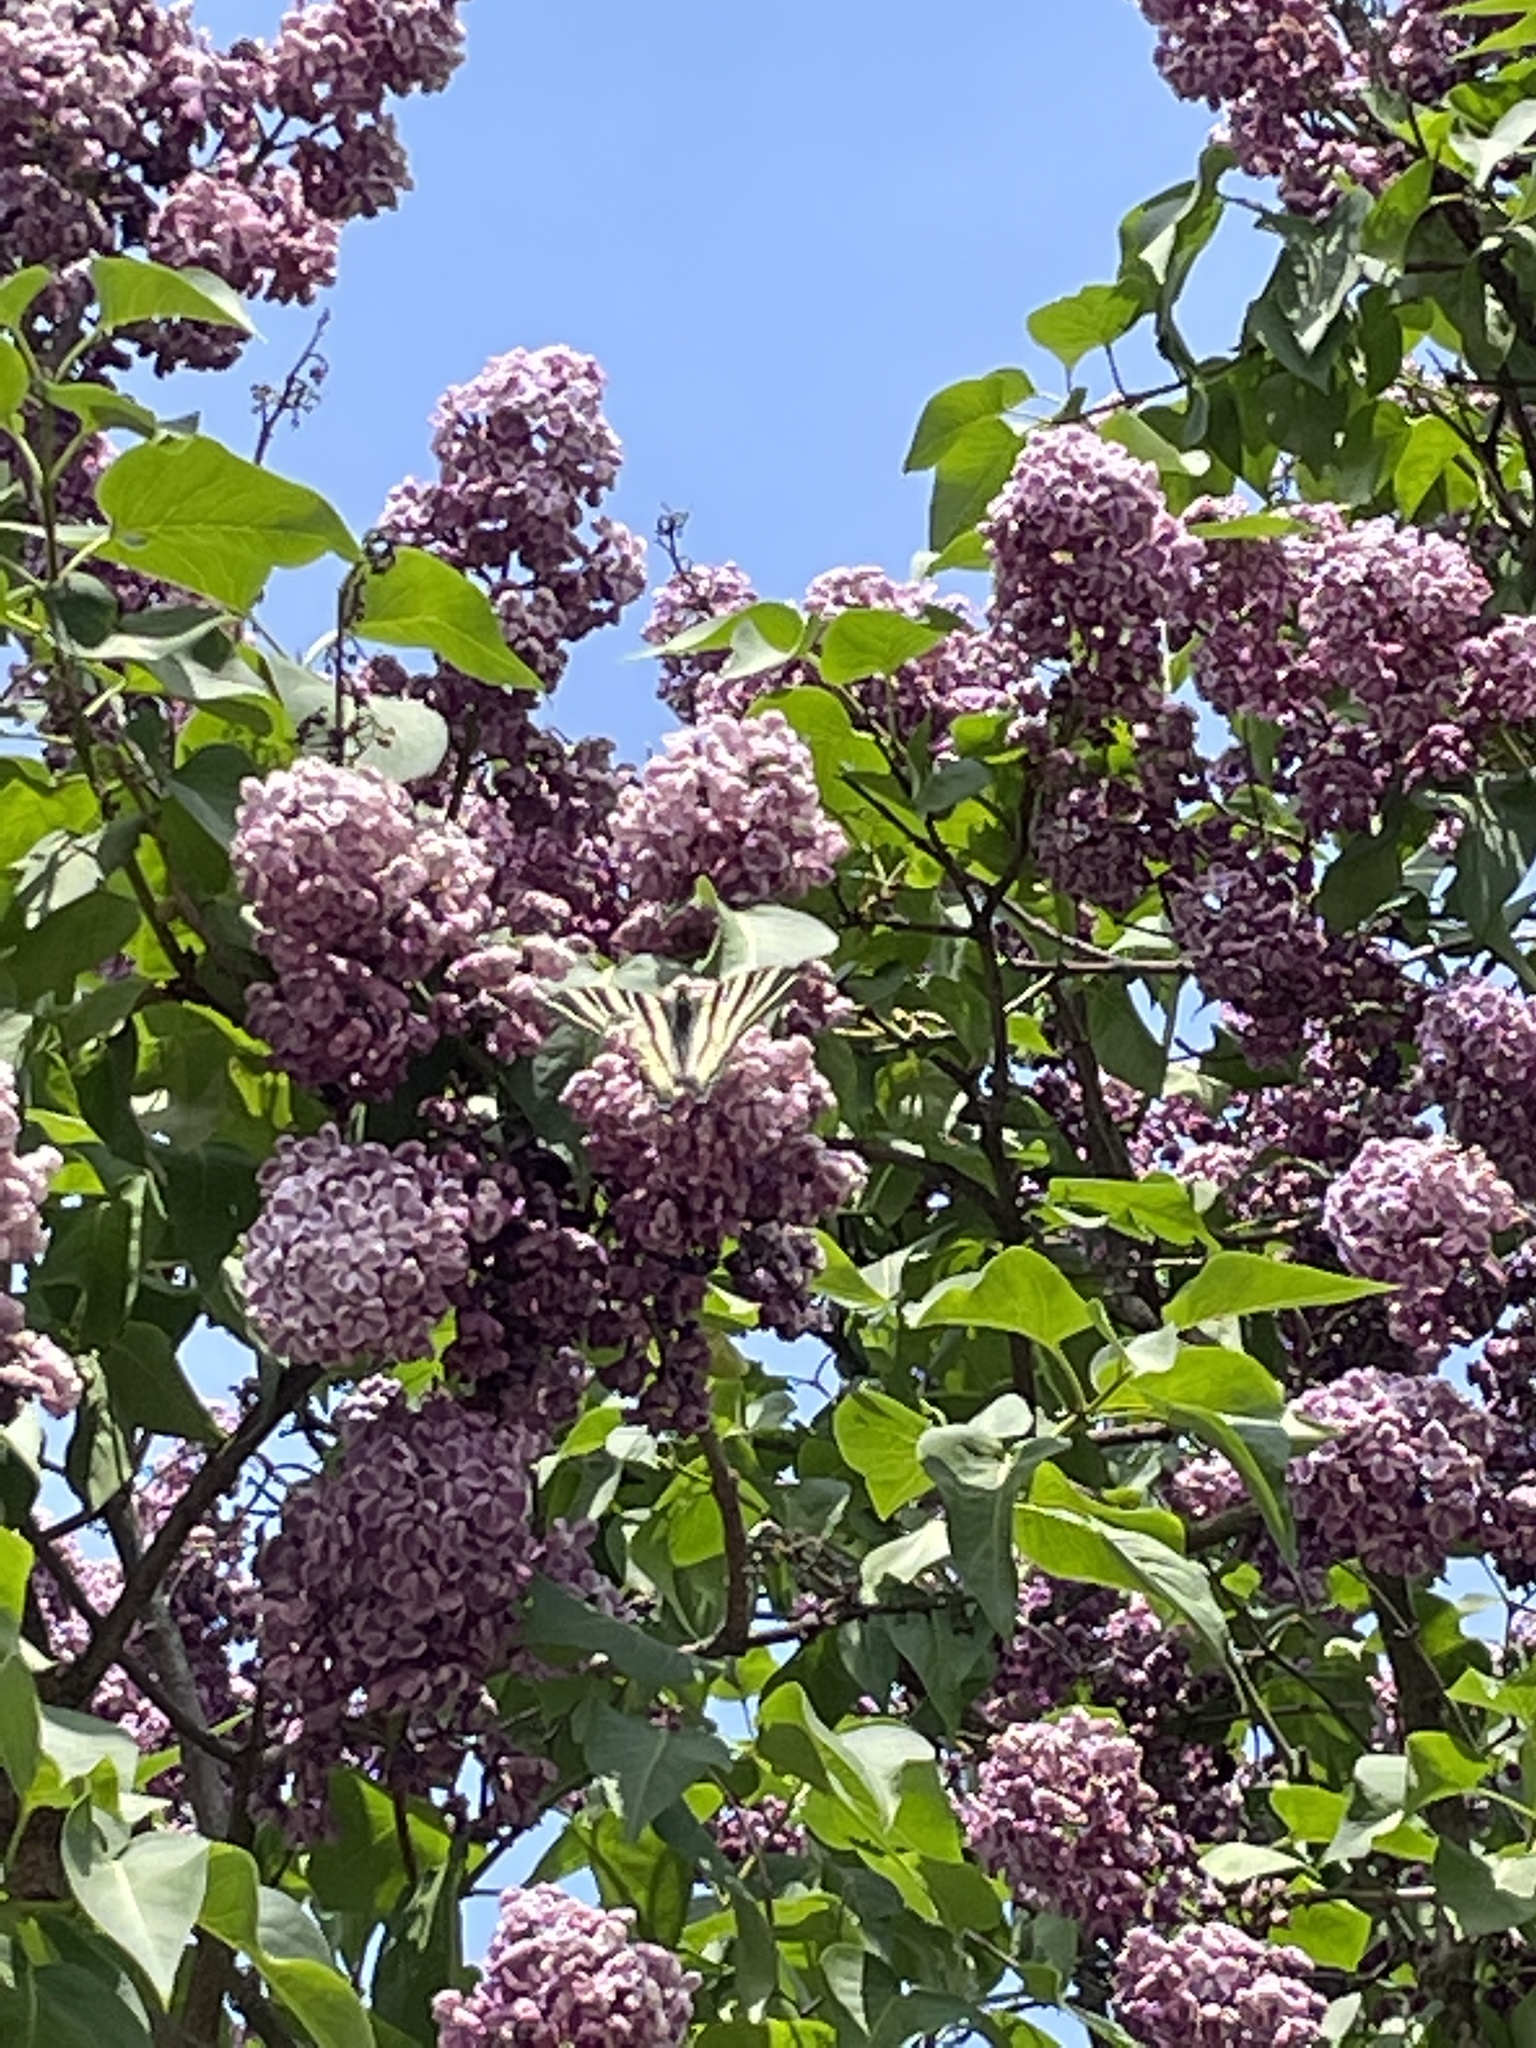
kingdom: Animalia
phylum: Arthropoda
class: Insecta
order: Lepidoptera
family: Papilionidae
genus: Iphiclides
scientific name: Iphiclides podalirius
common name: Scarce swallowtail
